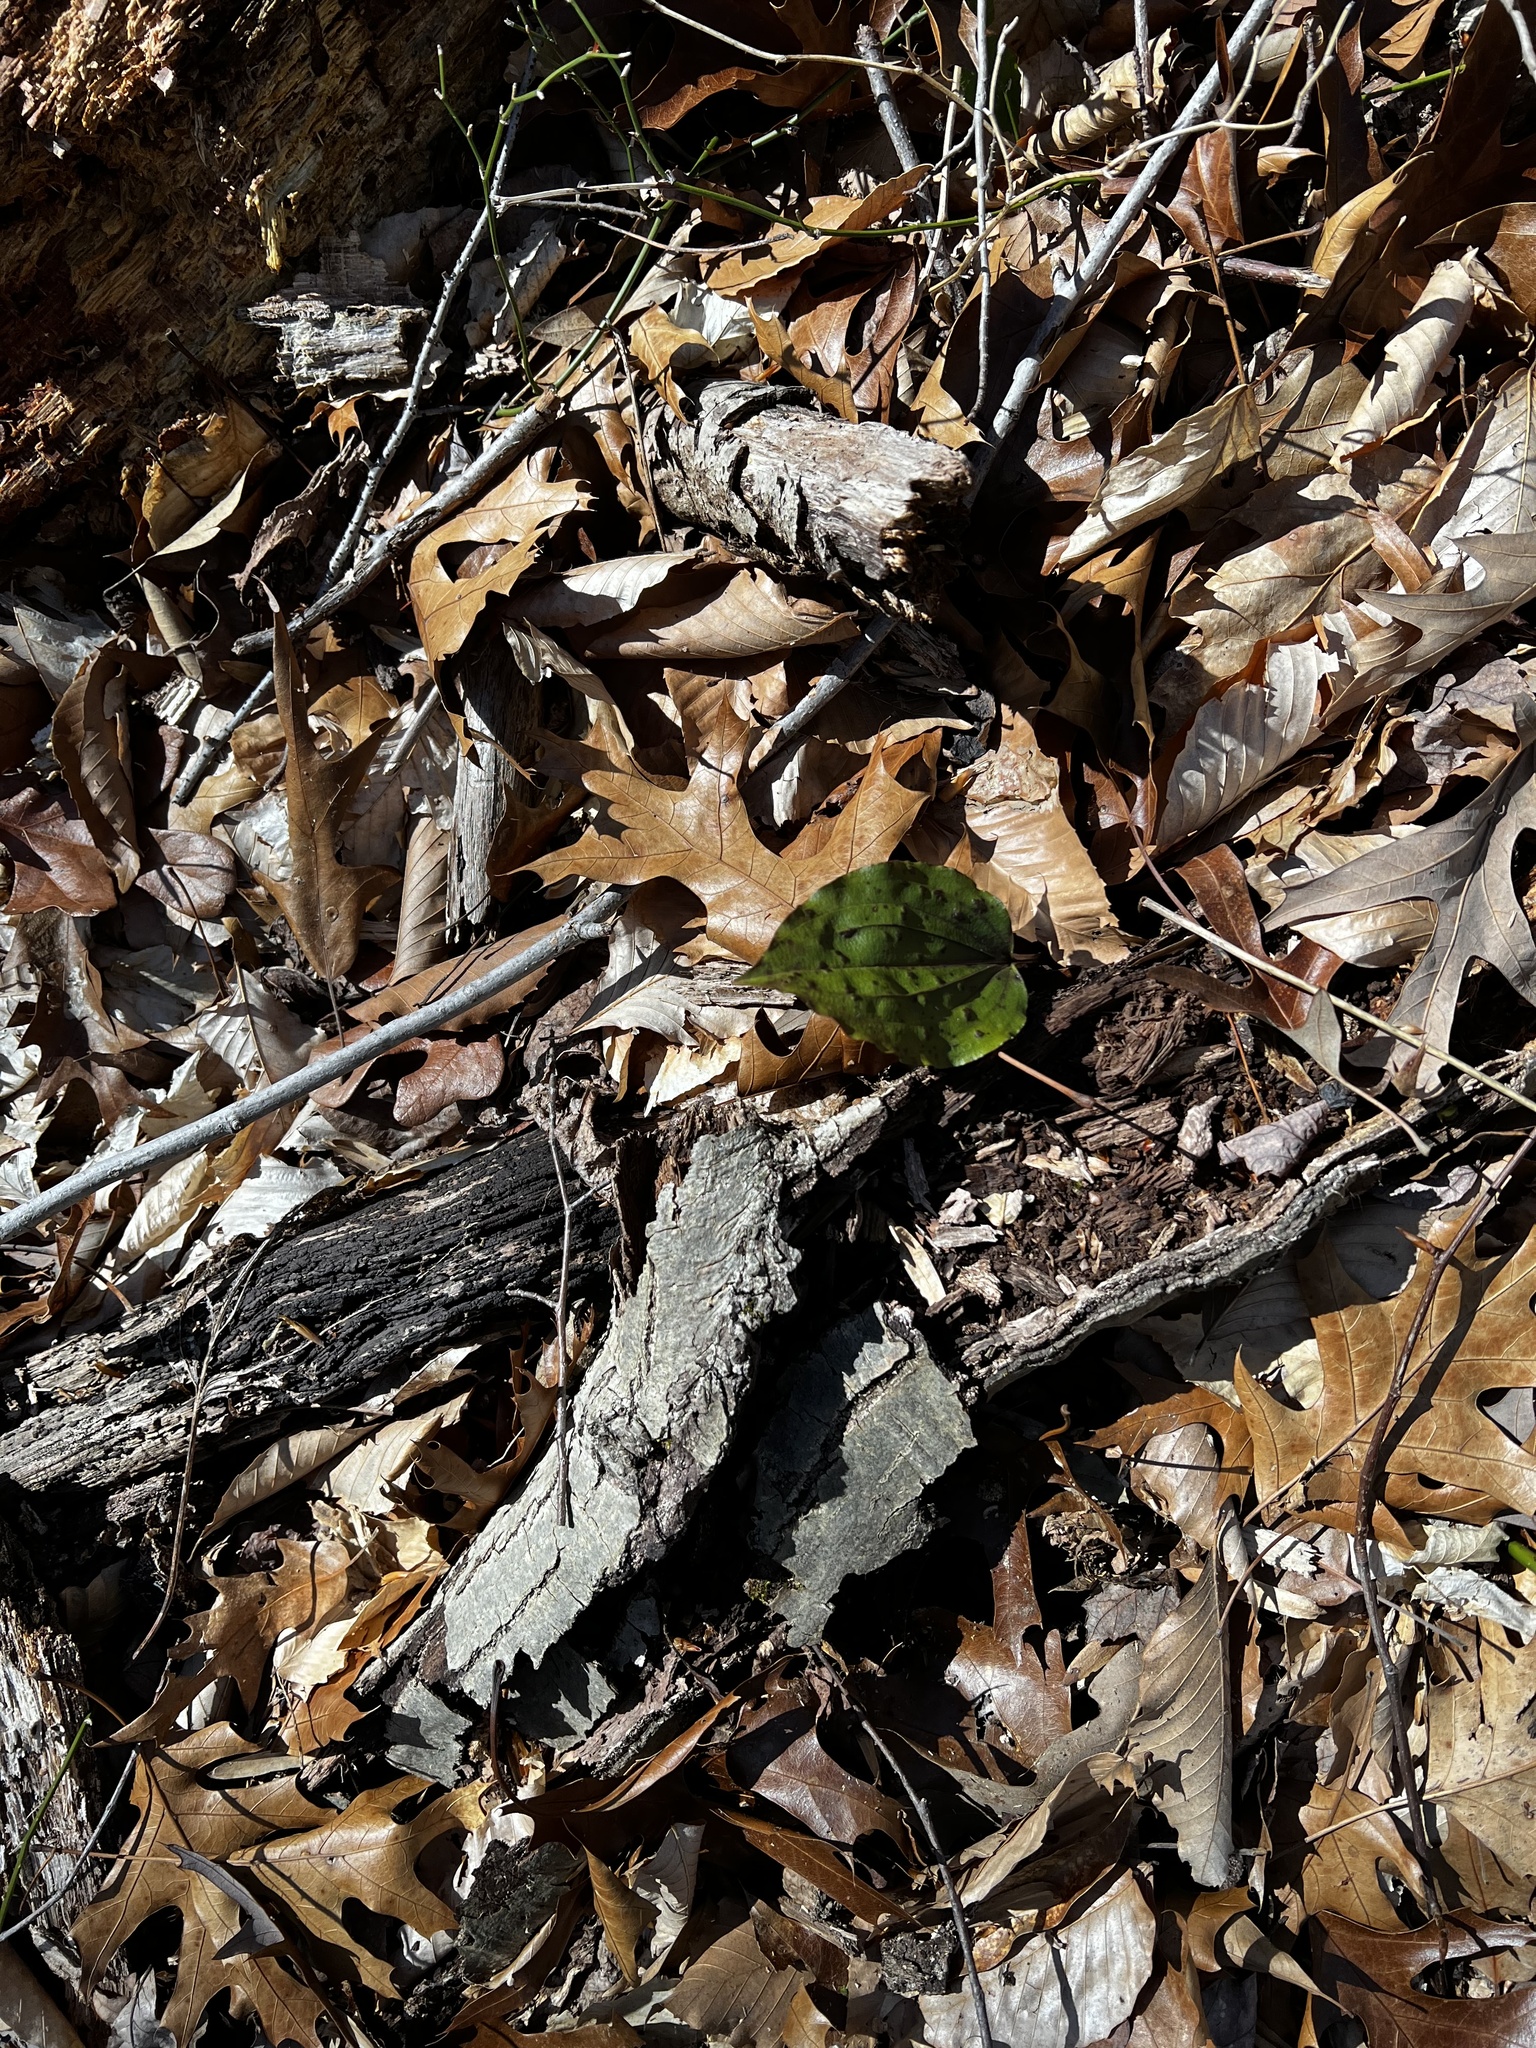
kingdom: Plantae
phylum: Tracheophyta
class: Liliopsida
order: Asparagales
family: Orchidaceae
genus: Tipularia
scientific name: Tipularia discolor
